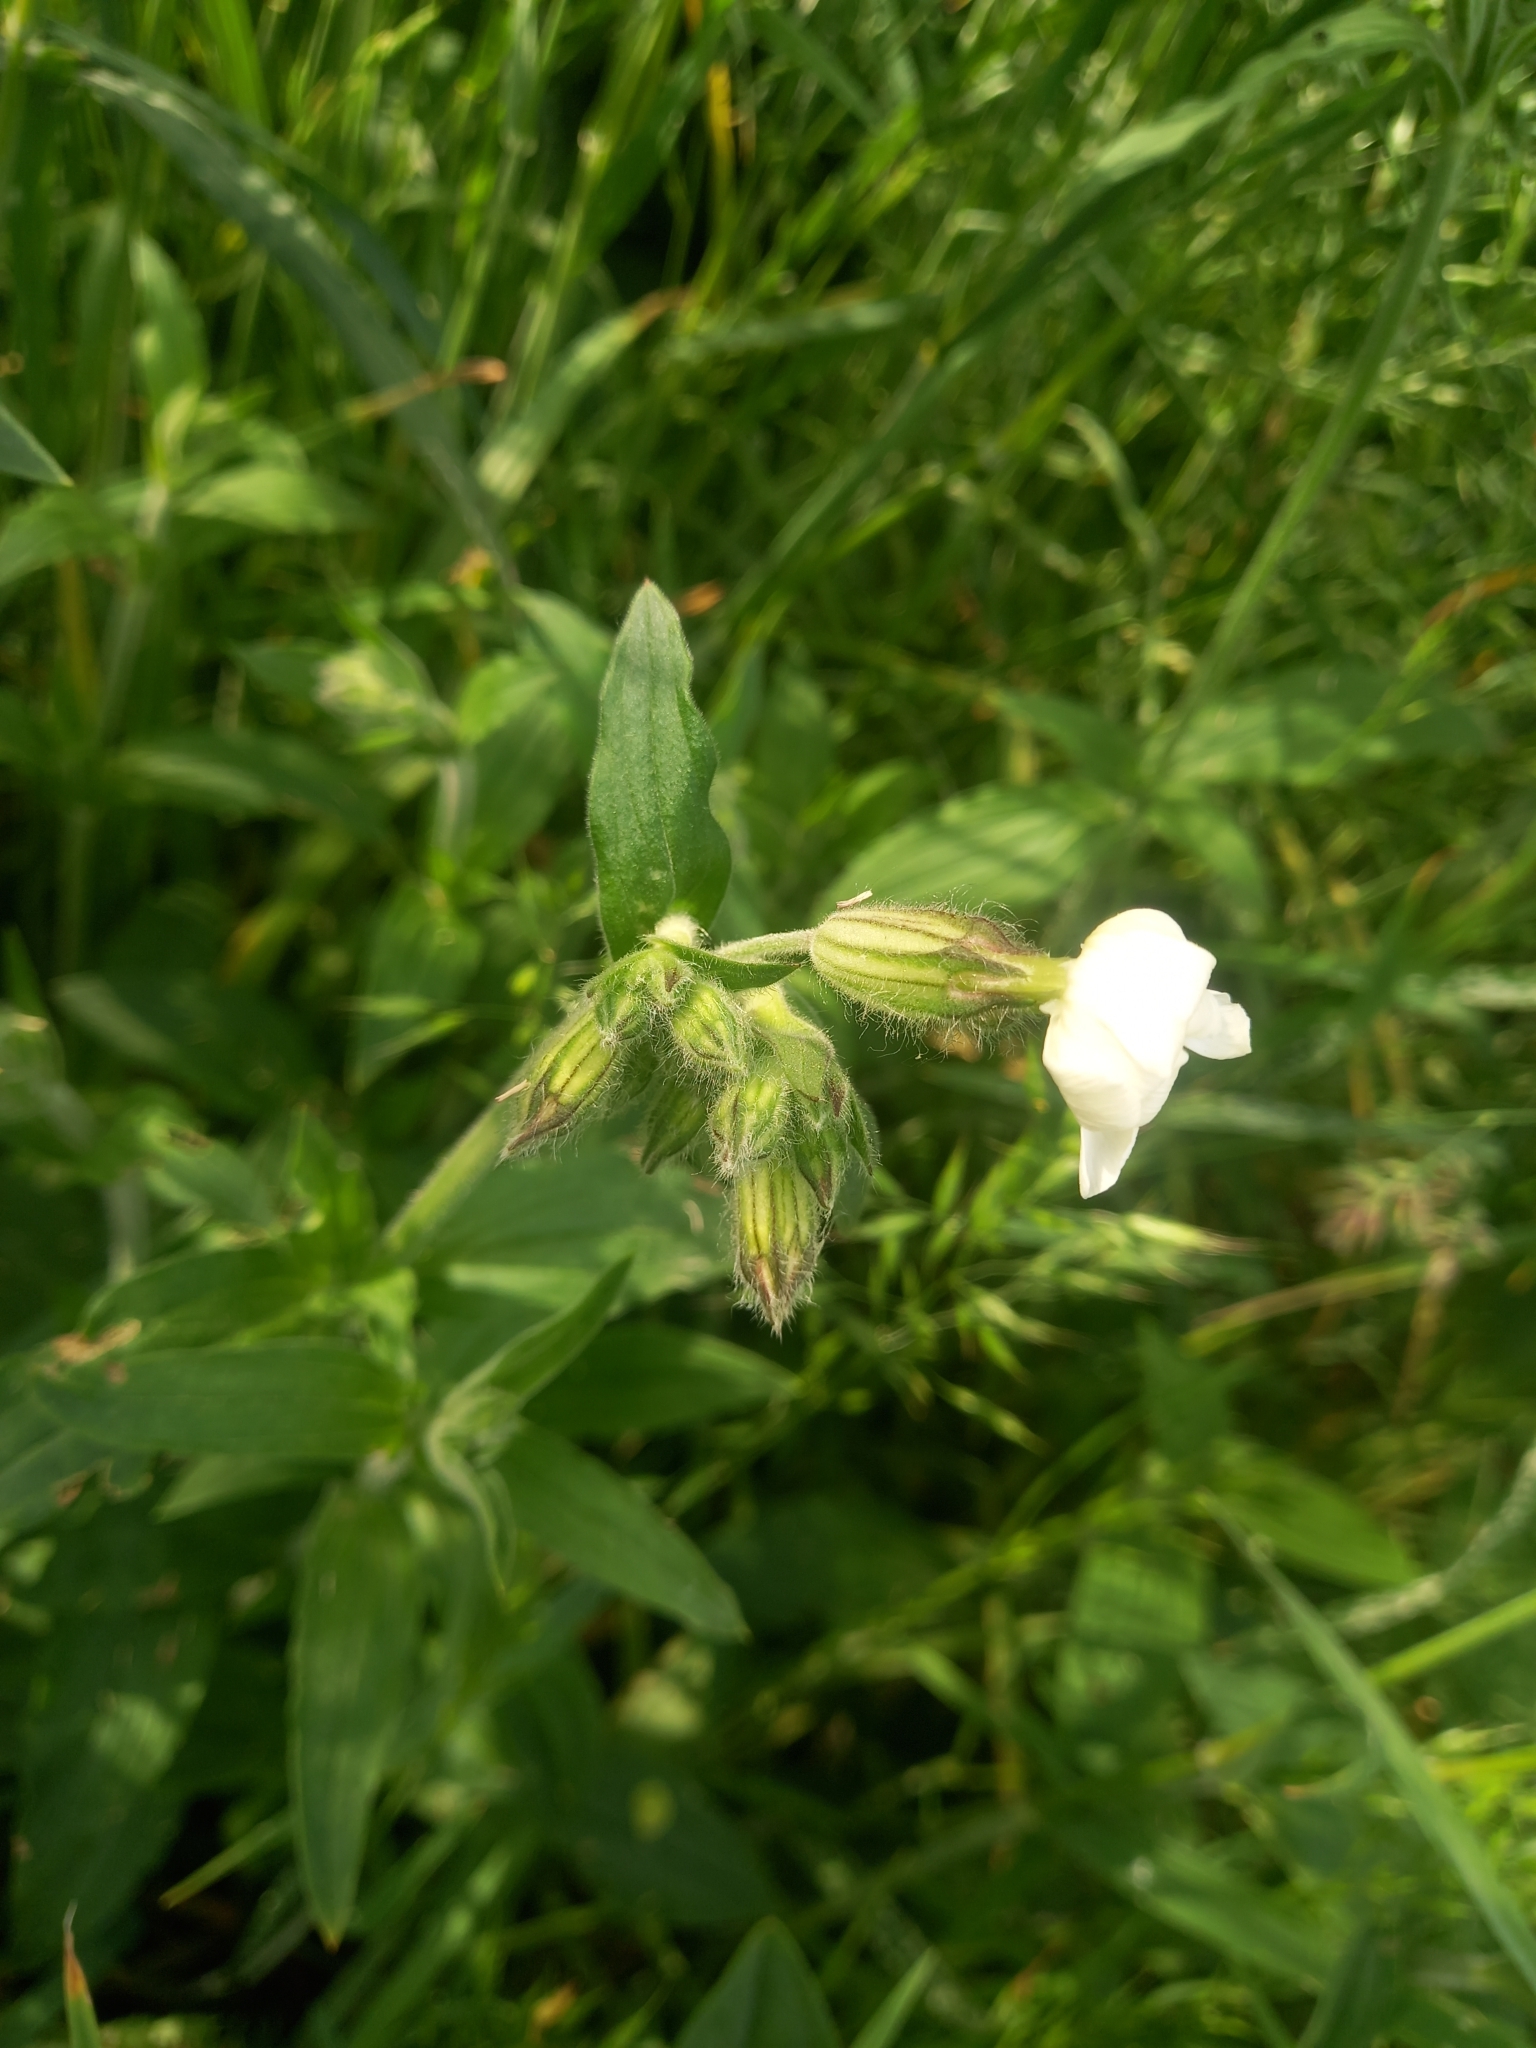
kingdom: Plantae
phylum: Tracheophyta
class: Magnoliopsida
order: Caryophyllales
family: Caryophyllaceae
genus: Silene
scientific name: Silene latifolia
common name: White campion
